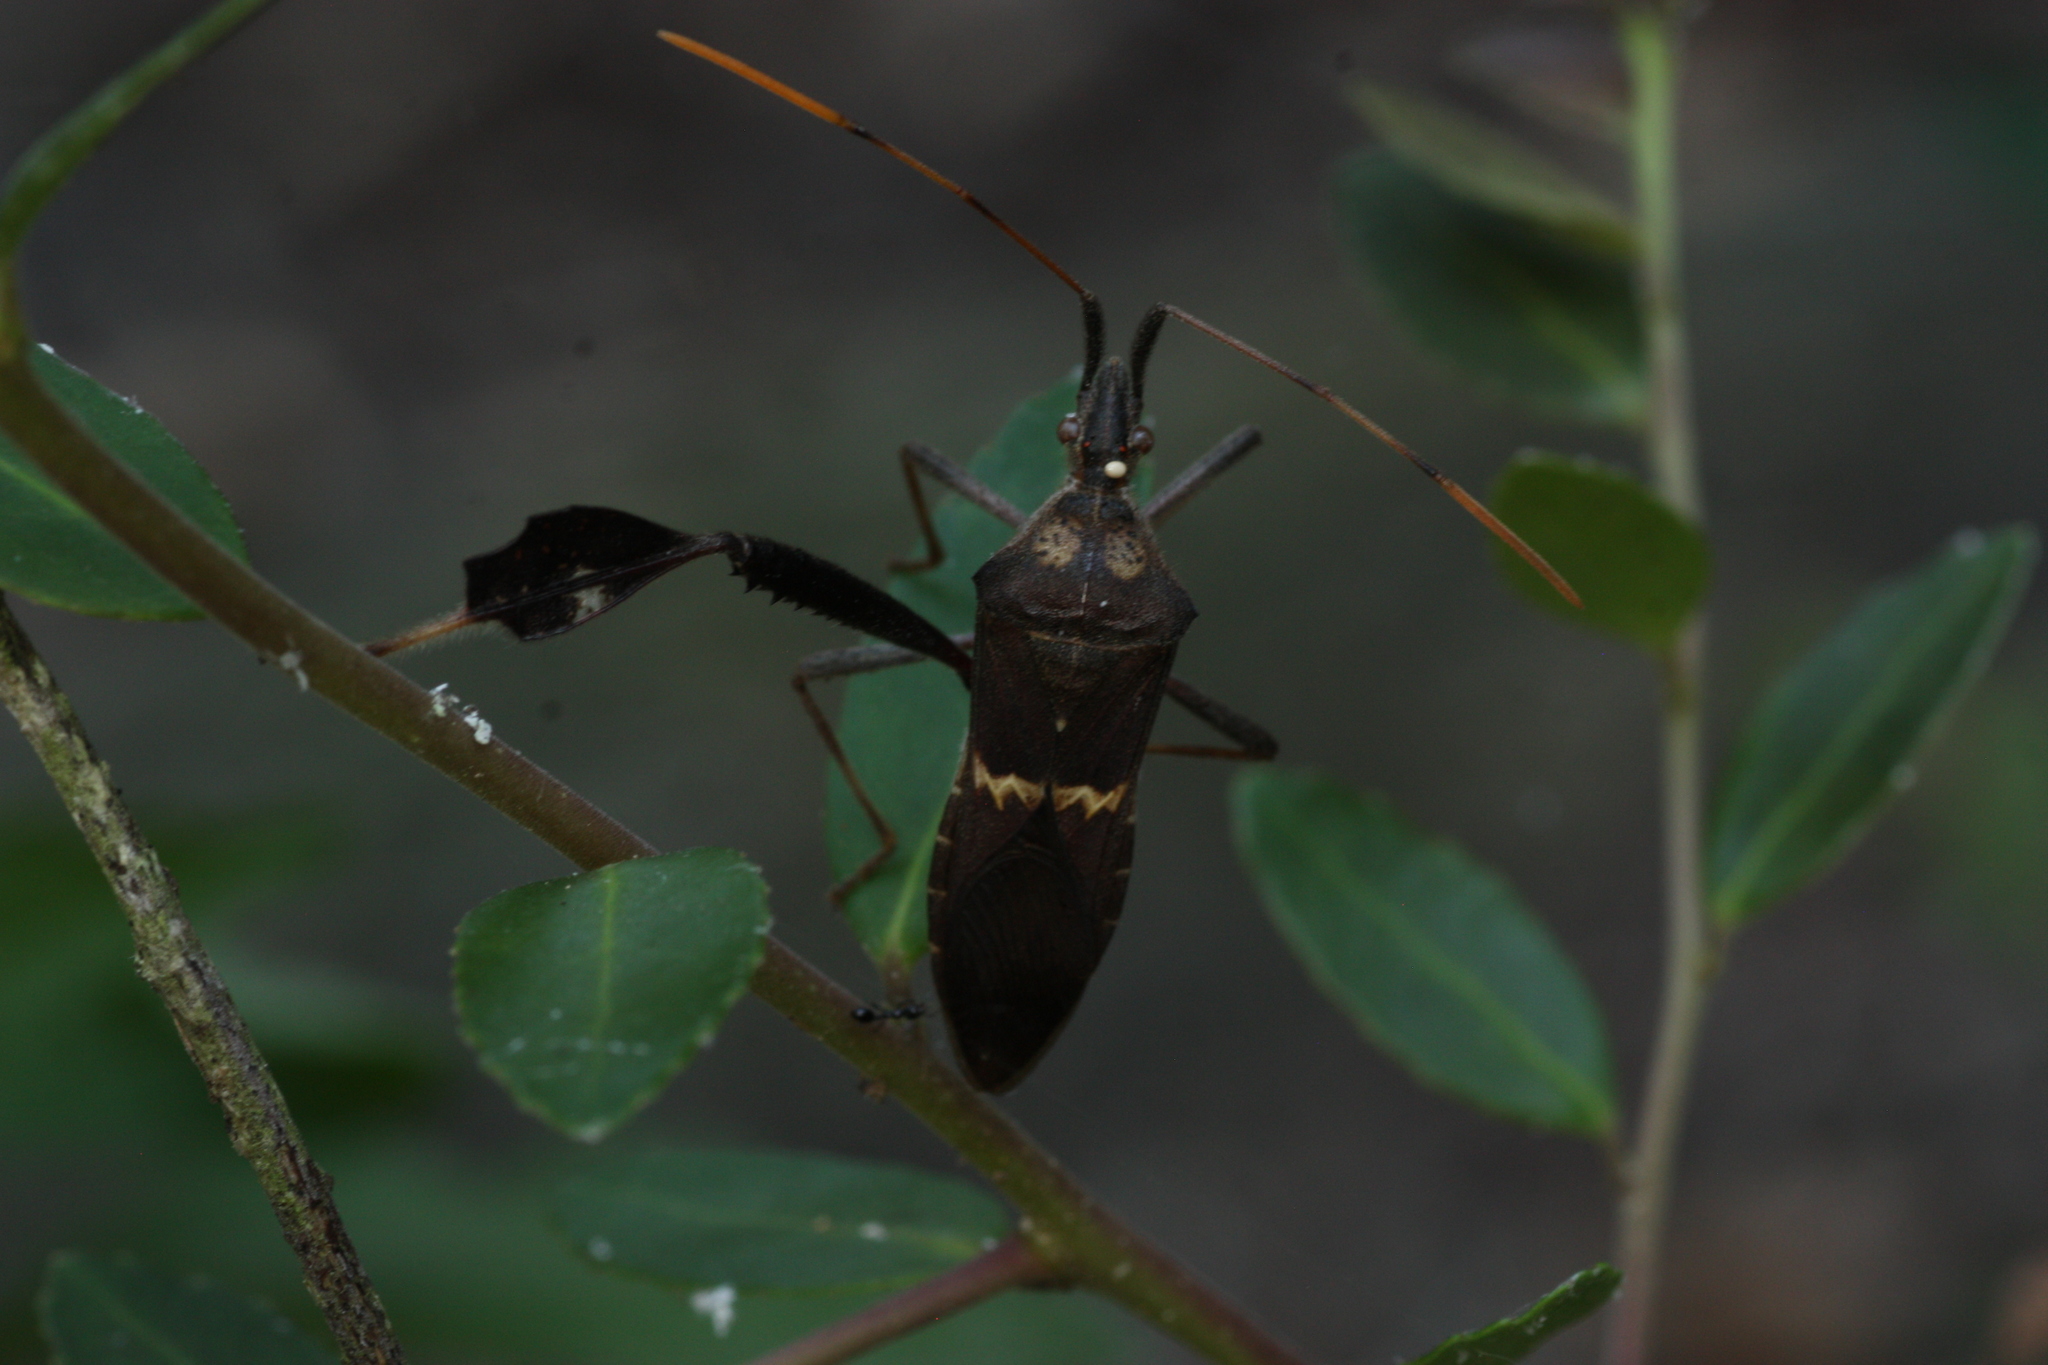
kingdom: Animalia
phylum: Arthropoda
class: Insecta
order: Hemiptera
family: Coreidae
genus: Leptoglossus
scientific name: Leptoglossus zonatus
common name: Large-legged bug
